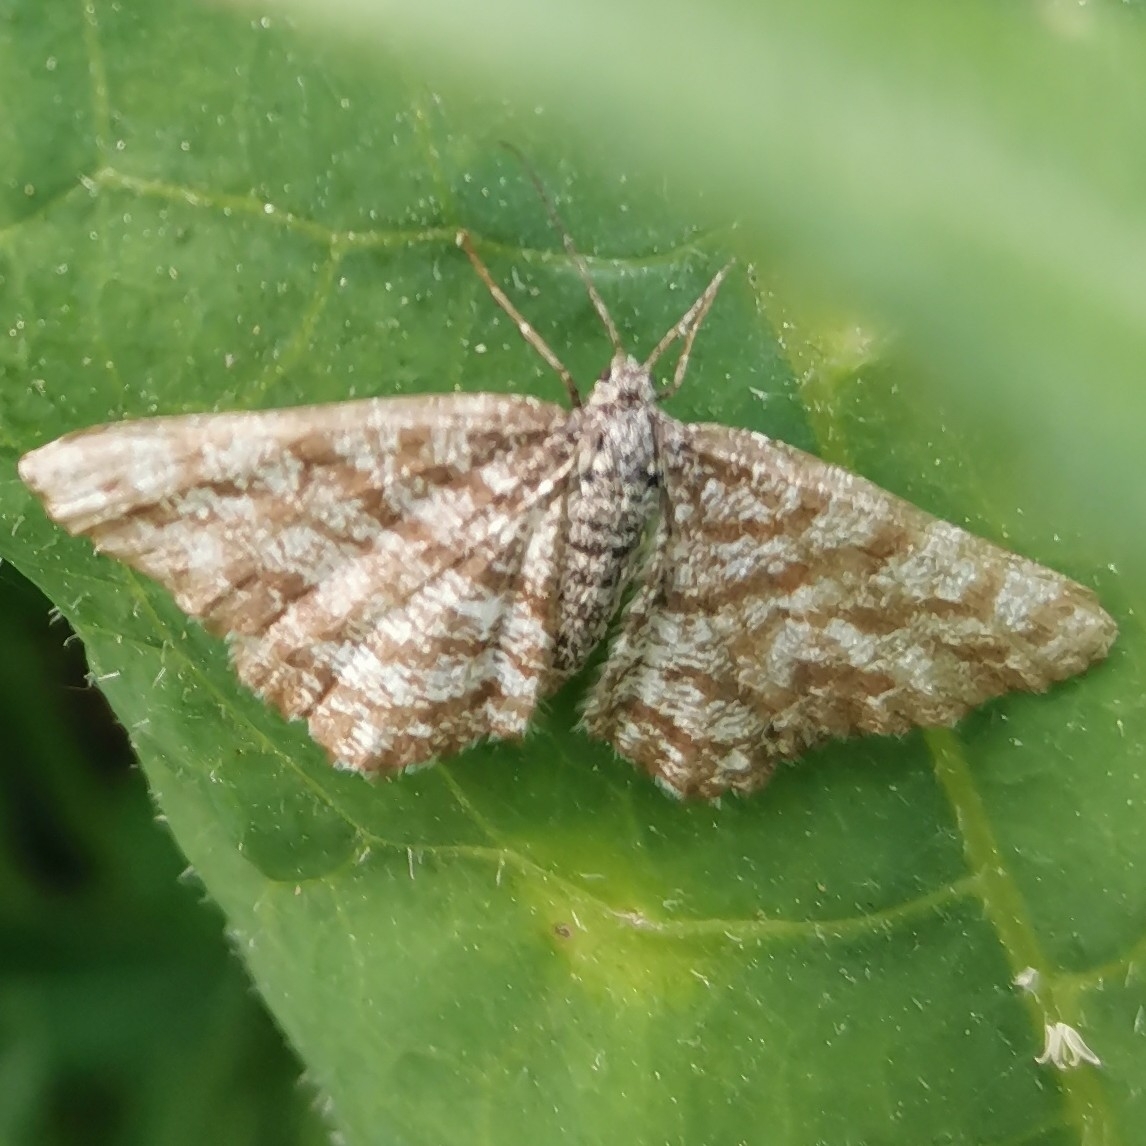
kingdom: Animalia
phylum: Arthropoda
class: Insecta
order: Lepidoptera
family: Geometridae
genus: Ematurga
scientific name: Ematurga atomaria
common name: Common heath
